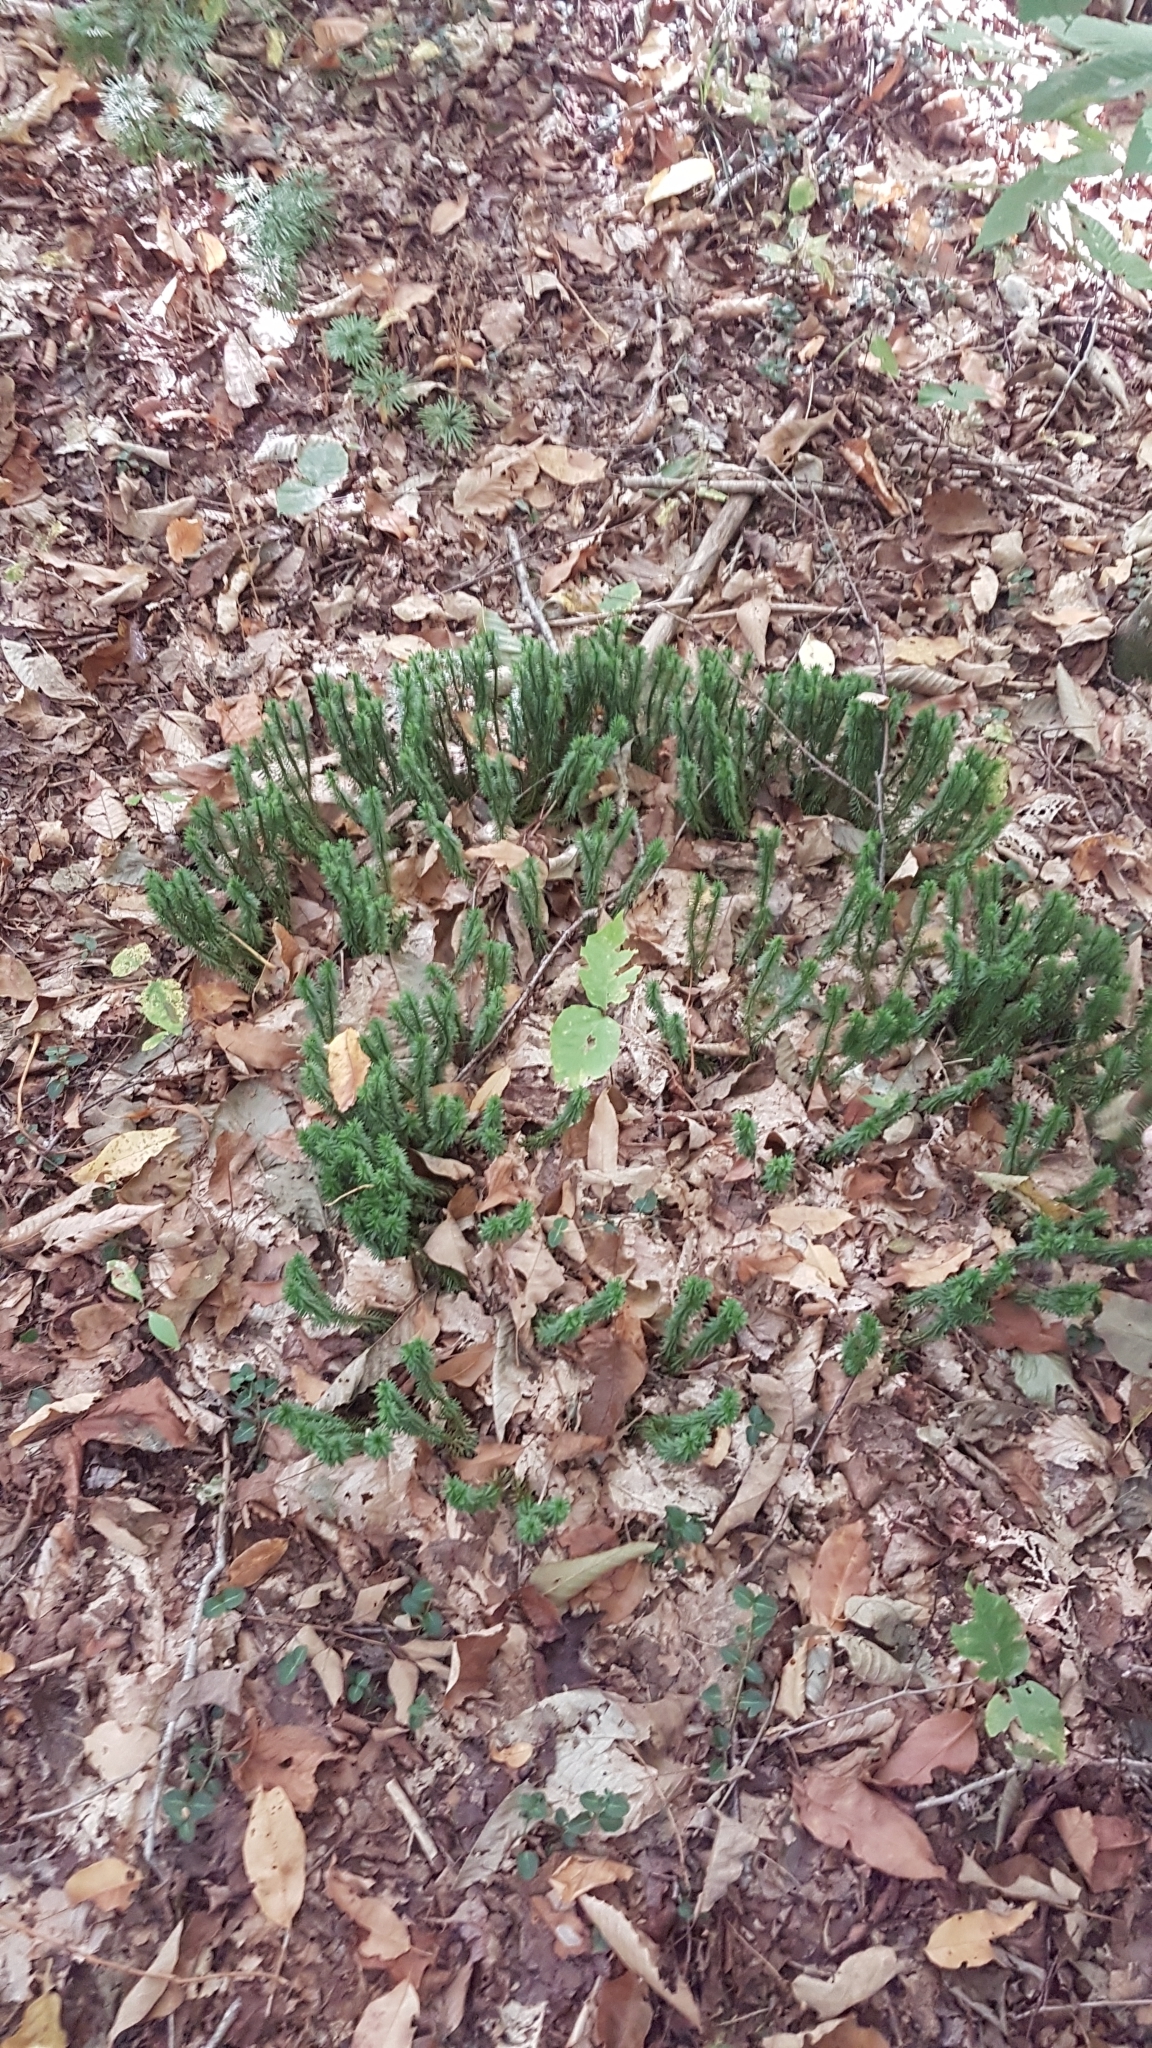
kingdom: Plantae
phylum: Tracheophyta
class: Lycopodiopsida
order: Lycopodiales
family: Lycopodiaceae
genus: Huperzia
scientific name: Huperzia lucidula
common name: Shining clubmoss
